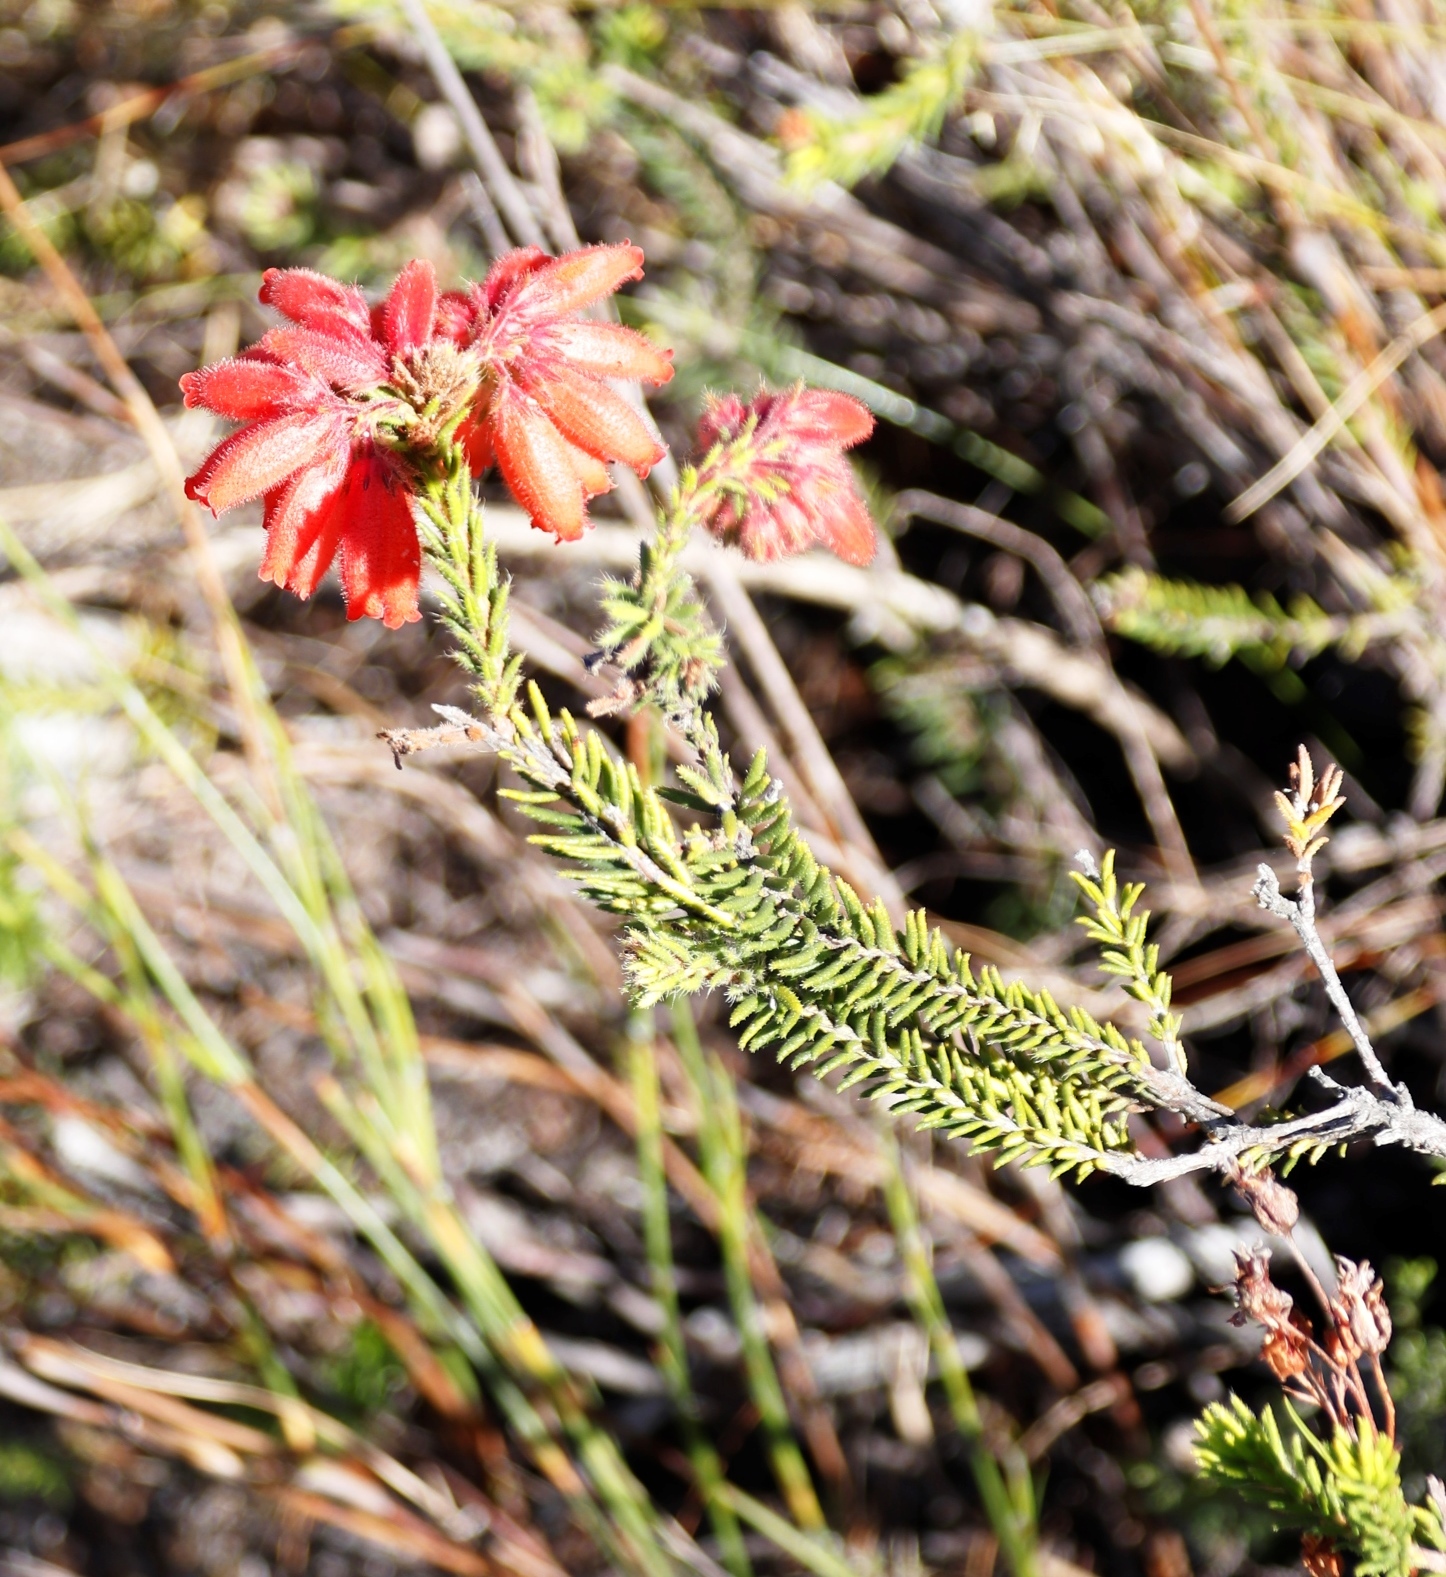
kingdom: Plantae
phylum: Tracheophyta
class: Magnoliopsida
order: Ericales
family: Ericaceae
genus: Erica
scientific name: Erica cerinthoides
